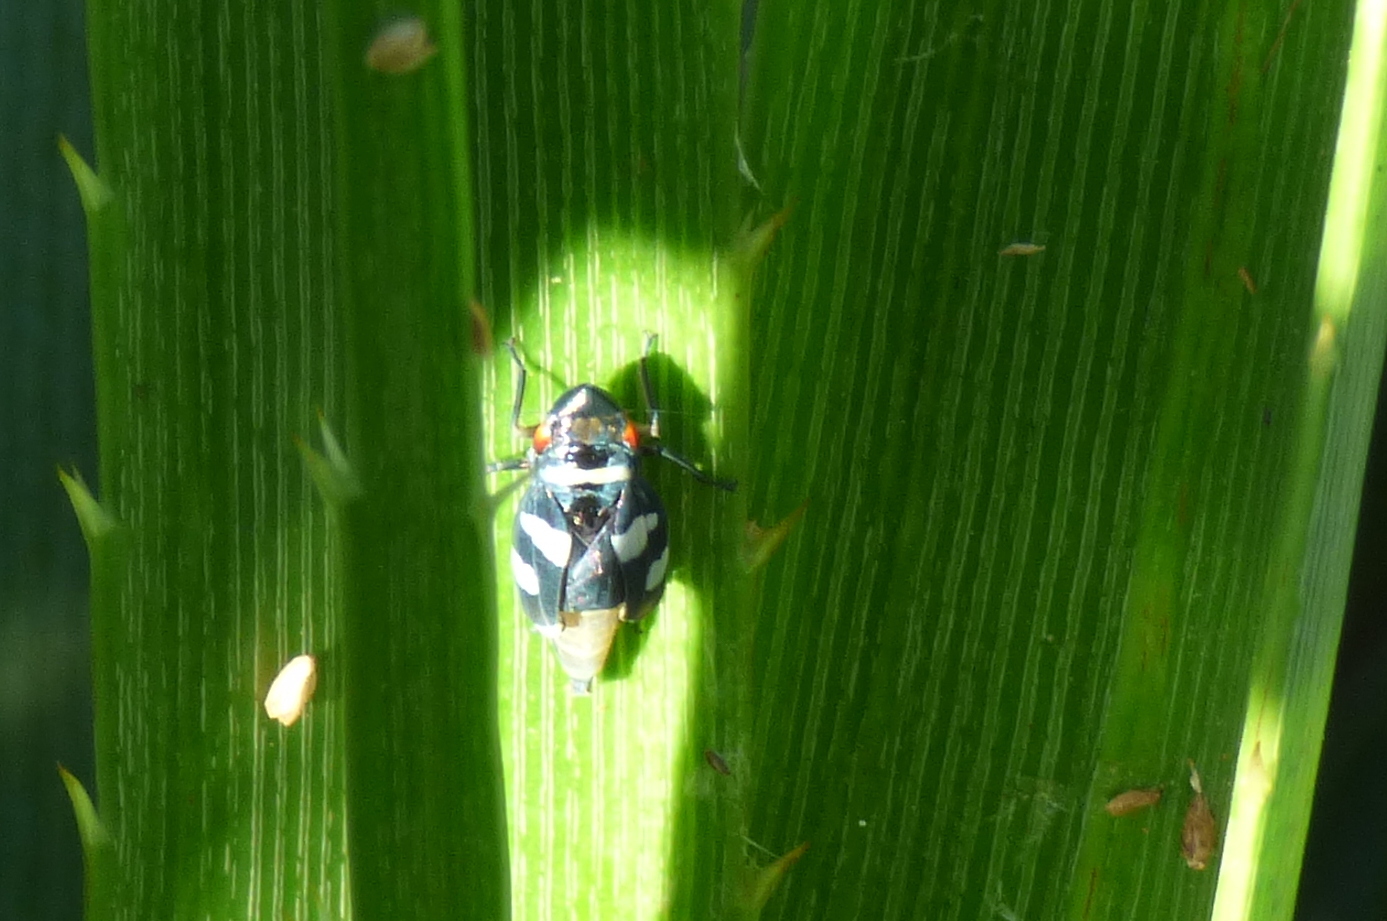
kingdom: Animalia
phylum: Arthropoda
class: Insecta
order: Hemiptera
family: Cicadellidae
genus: Balacha
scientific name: Balacha melanocephala
